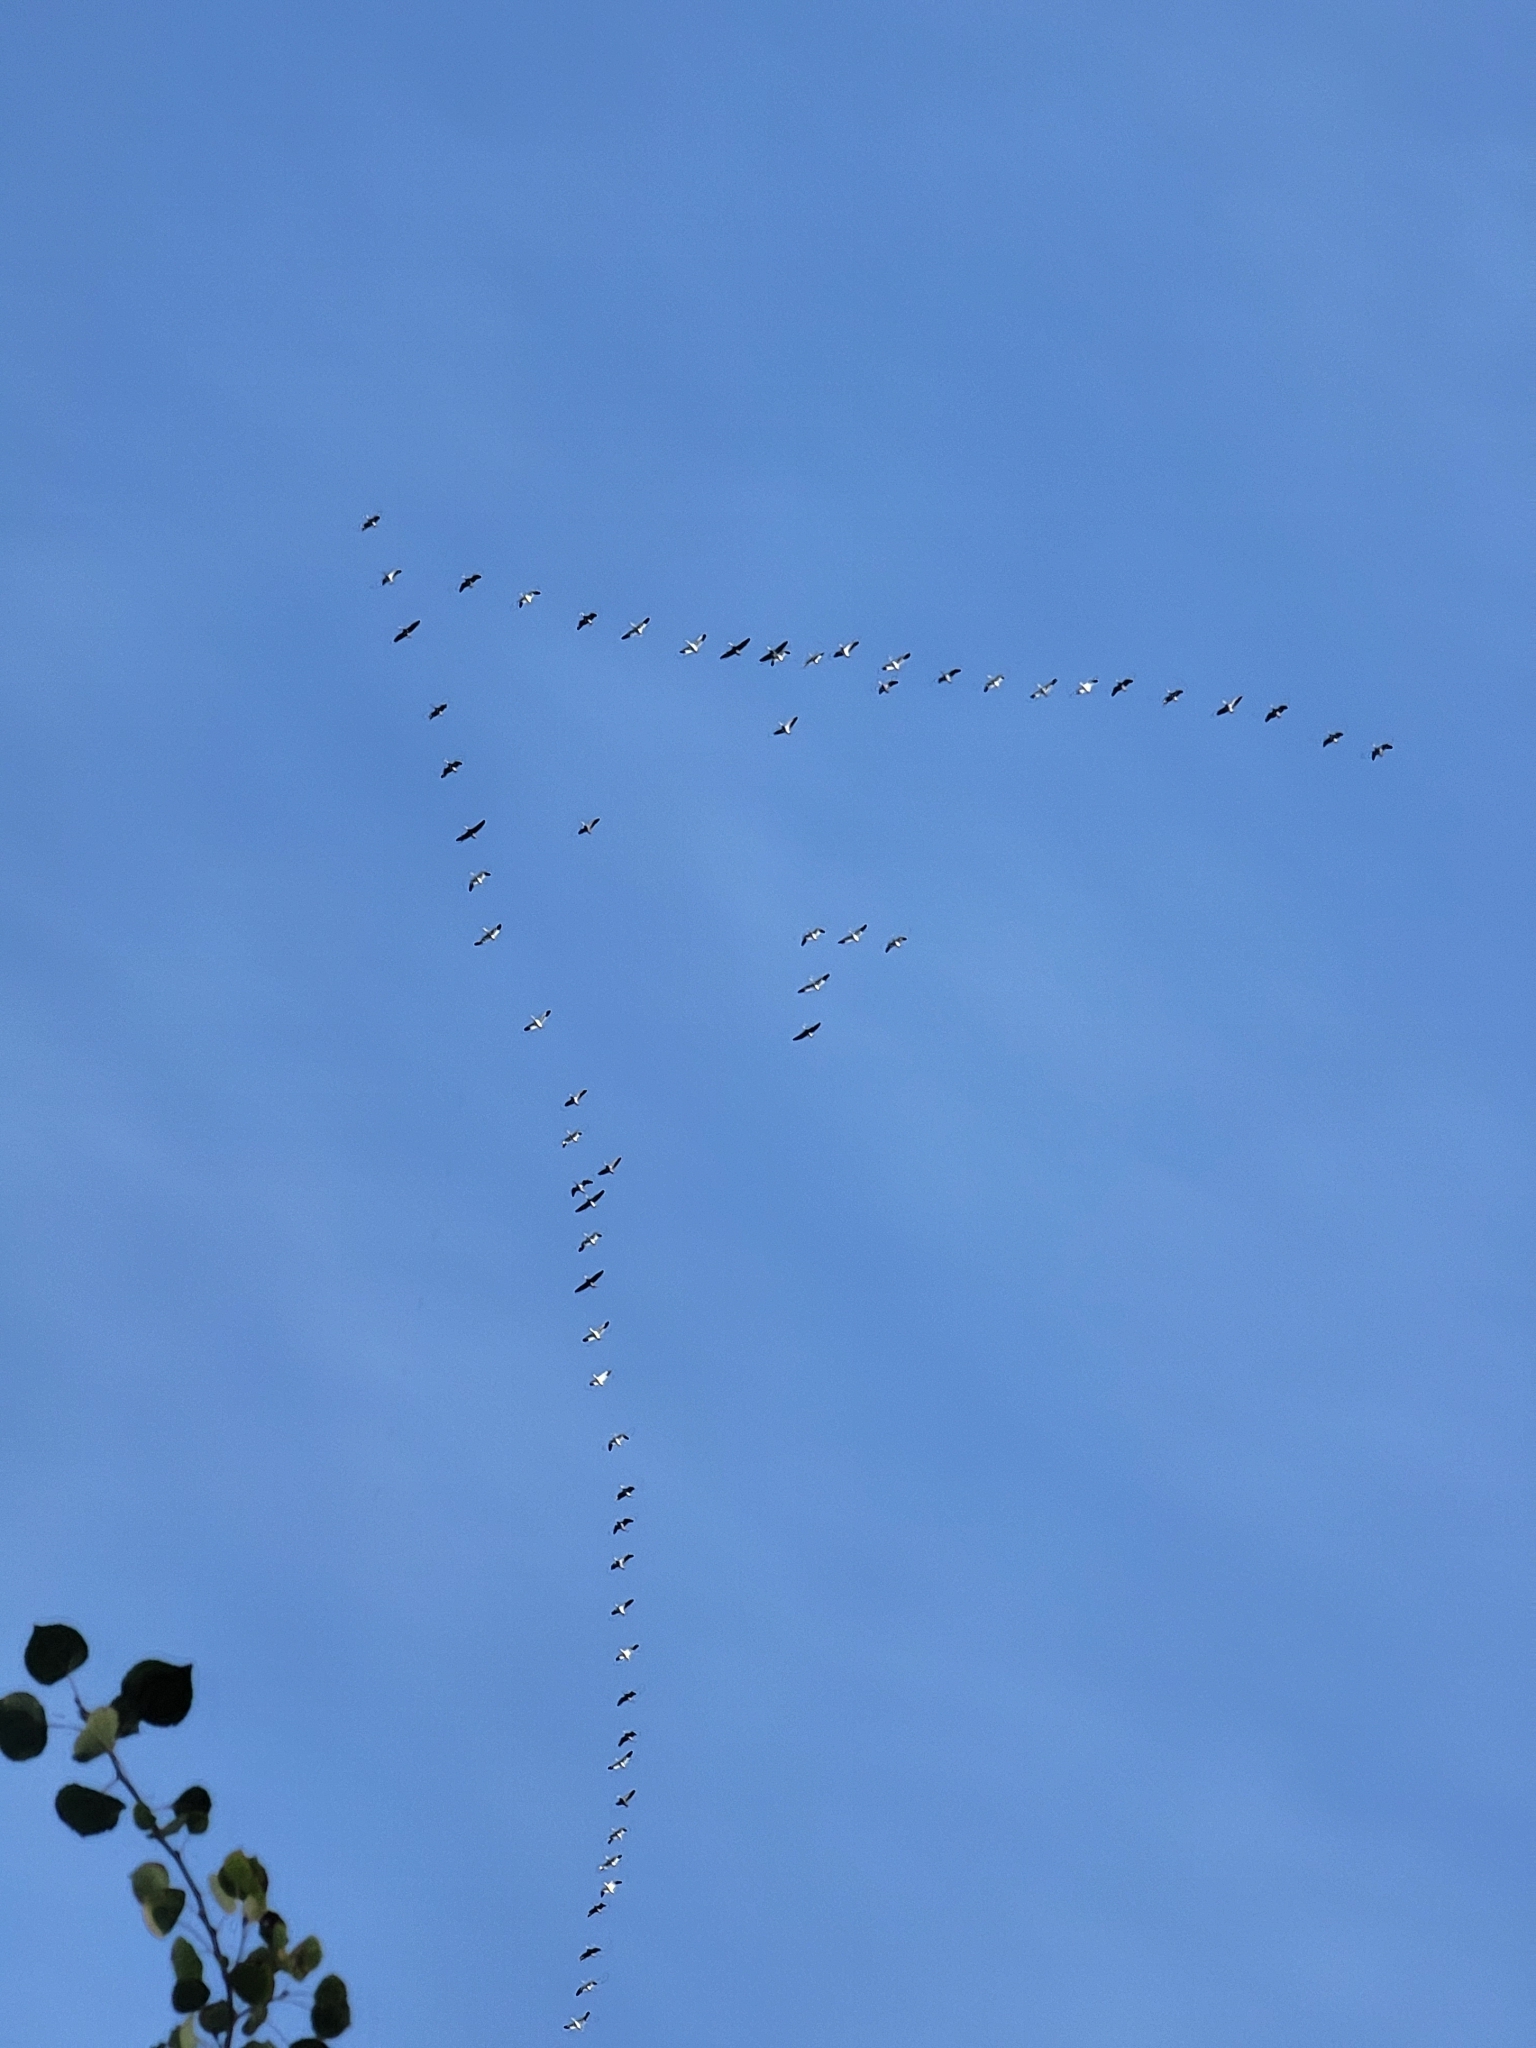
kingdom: Animalia
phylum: Chordata
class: Aves
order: Anseriformes
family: Anatidae
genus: Anser
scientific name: Anser caerulescens
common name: Snow goose
